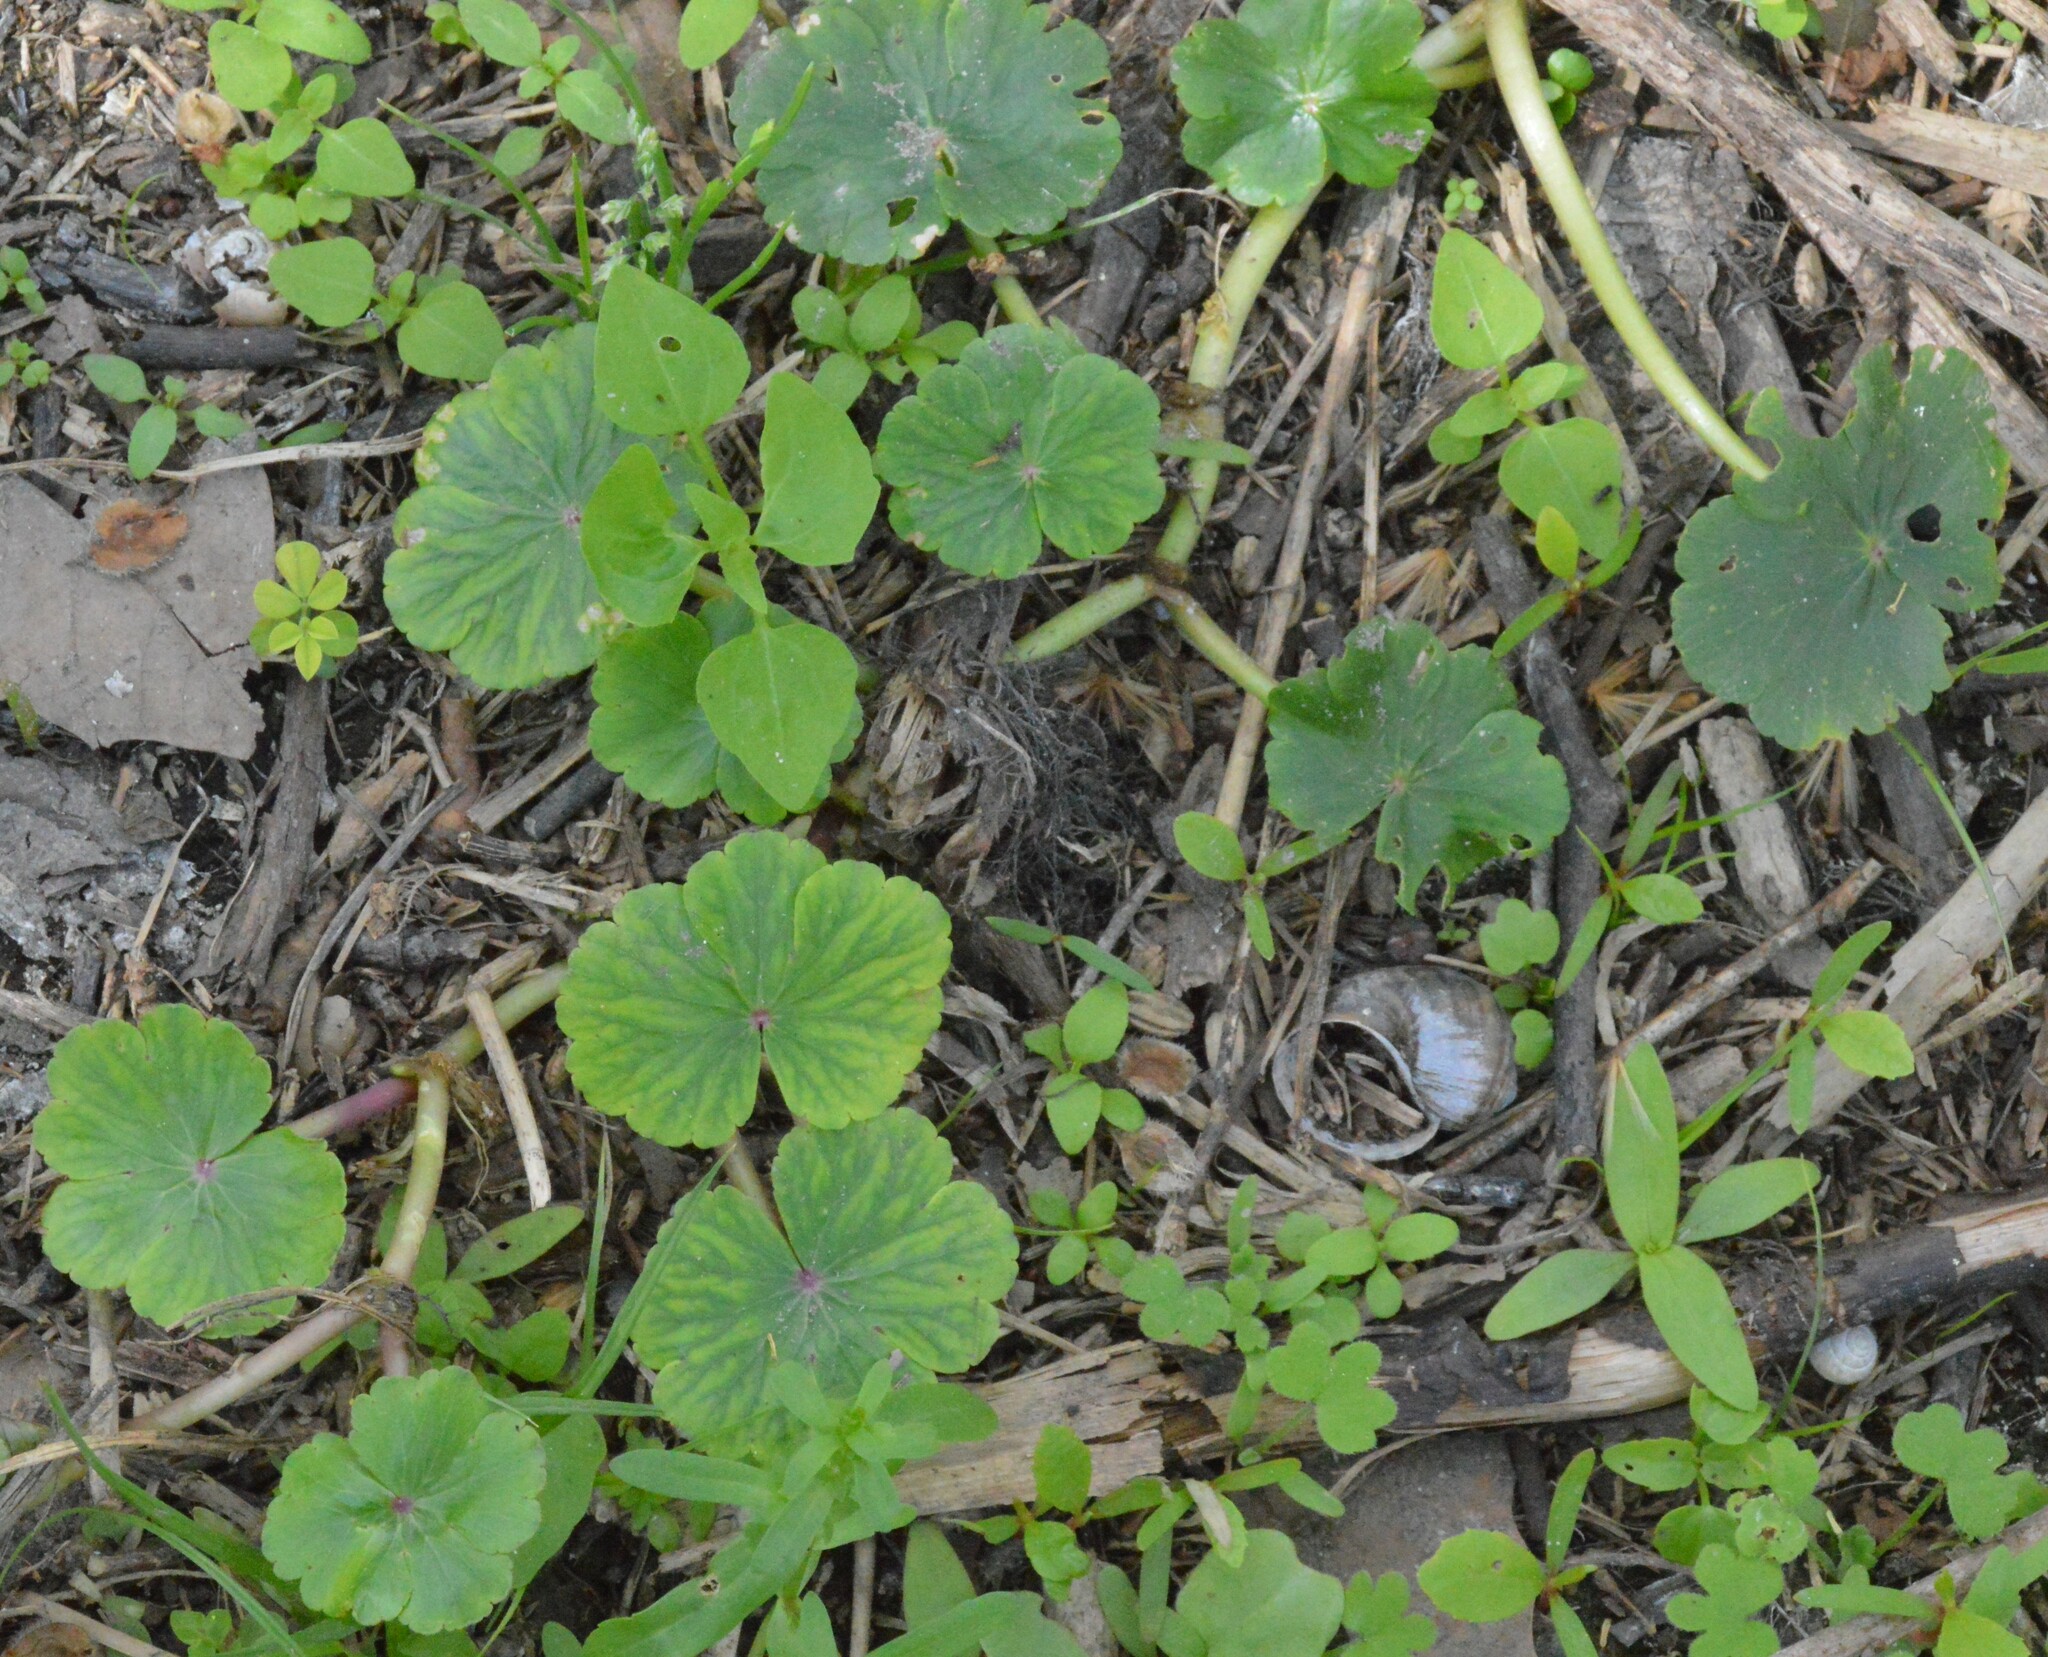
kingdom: Plantae
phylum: Tracheophyta
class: Magnoliopsida
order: Apiales
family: Araliaceae
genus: Hydrocotyle
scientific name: Hydrocotyle ranunculoides
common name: Floating pennywort
